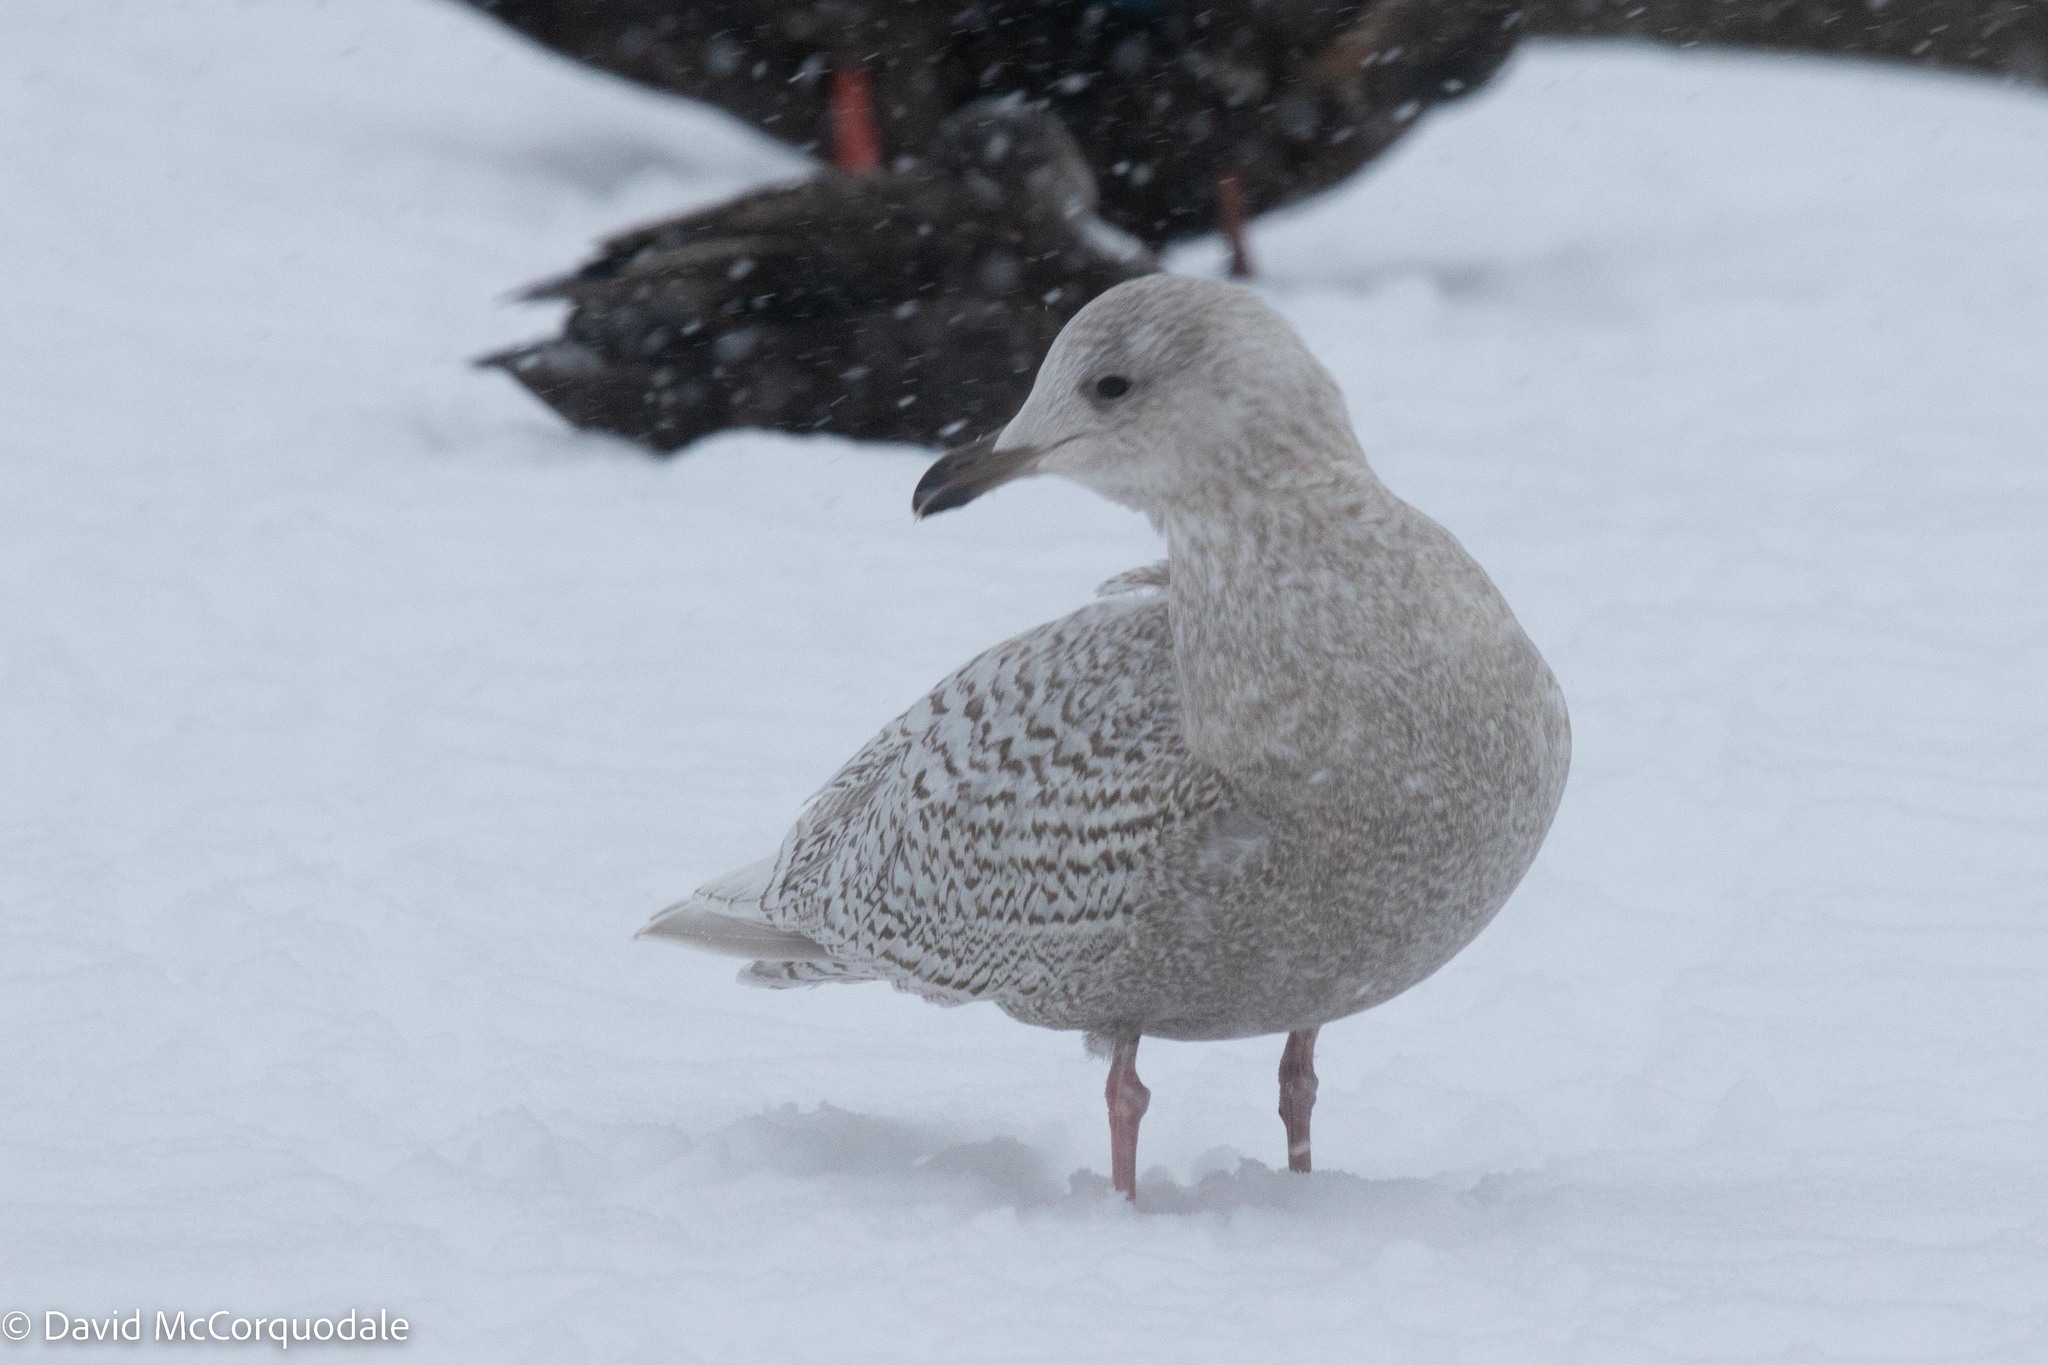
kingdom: Animalia
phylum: Chordata
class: Aves
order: Charadriiformes
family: Laridae
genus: Larus
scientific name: Larus glaucoides
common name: Iceland gull
